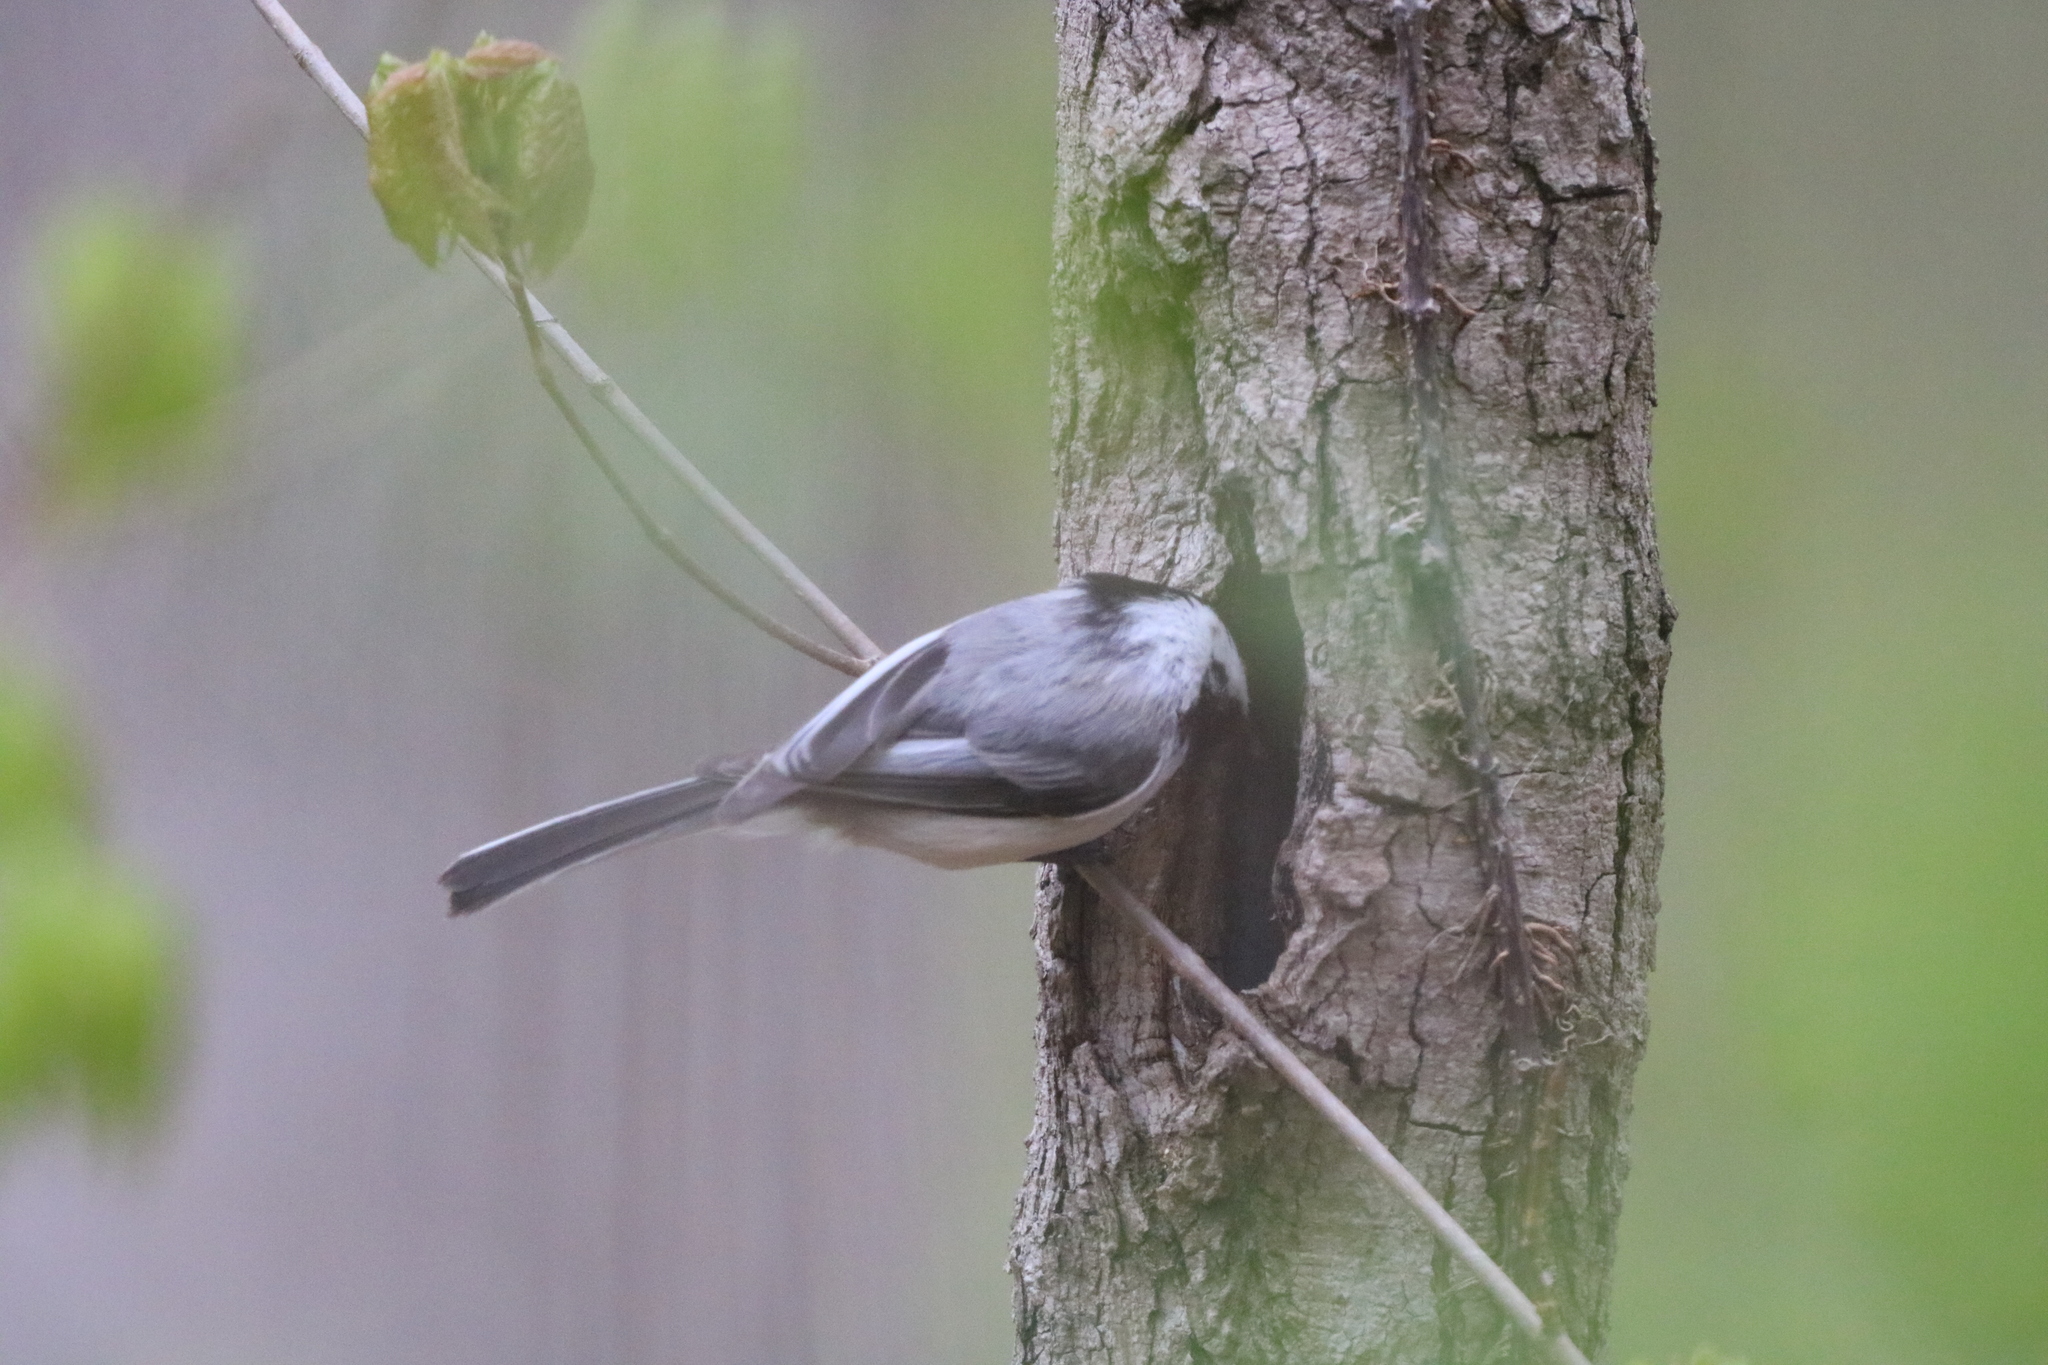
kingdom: Animalia
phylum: Chordata
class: Aves
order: Passeriformes
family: Paridae
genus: Poecile
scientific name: Poecile atricapillus
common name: Black-capped chickadee
